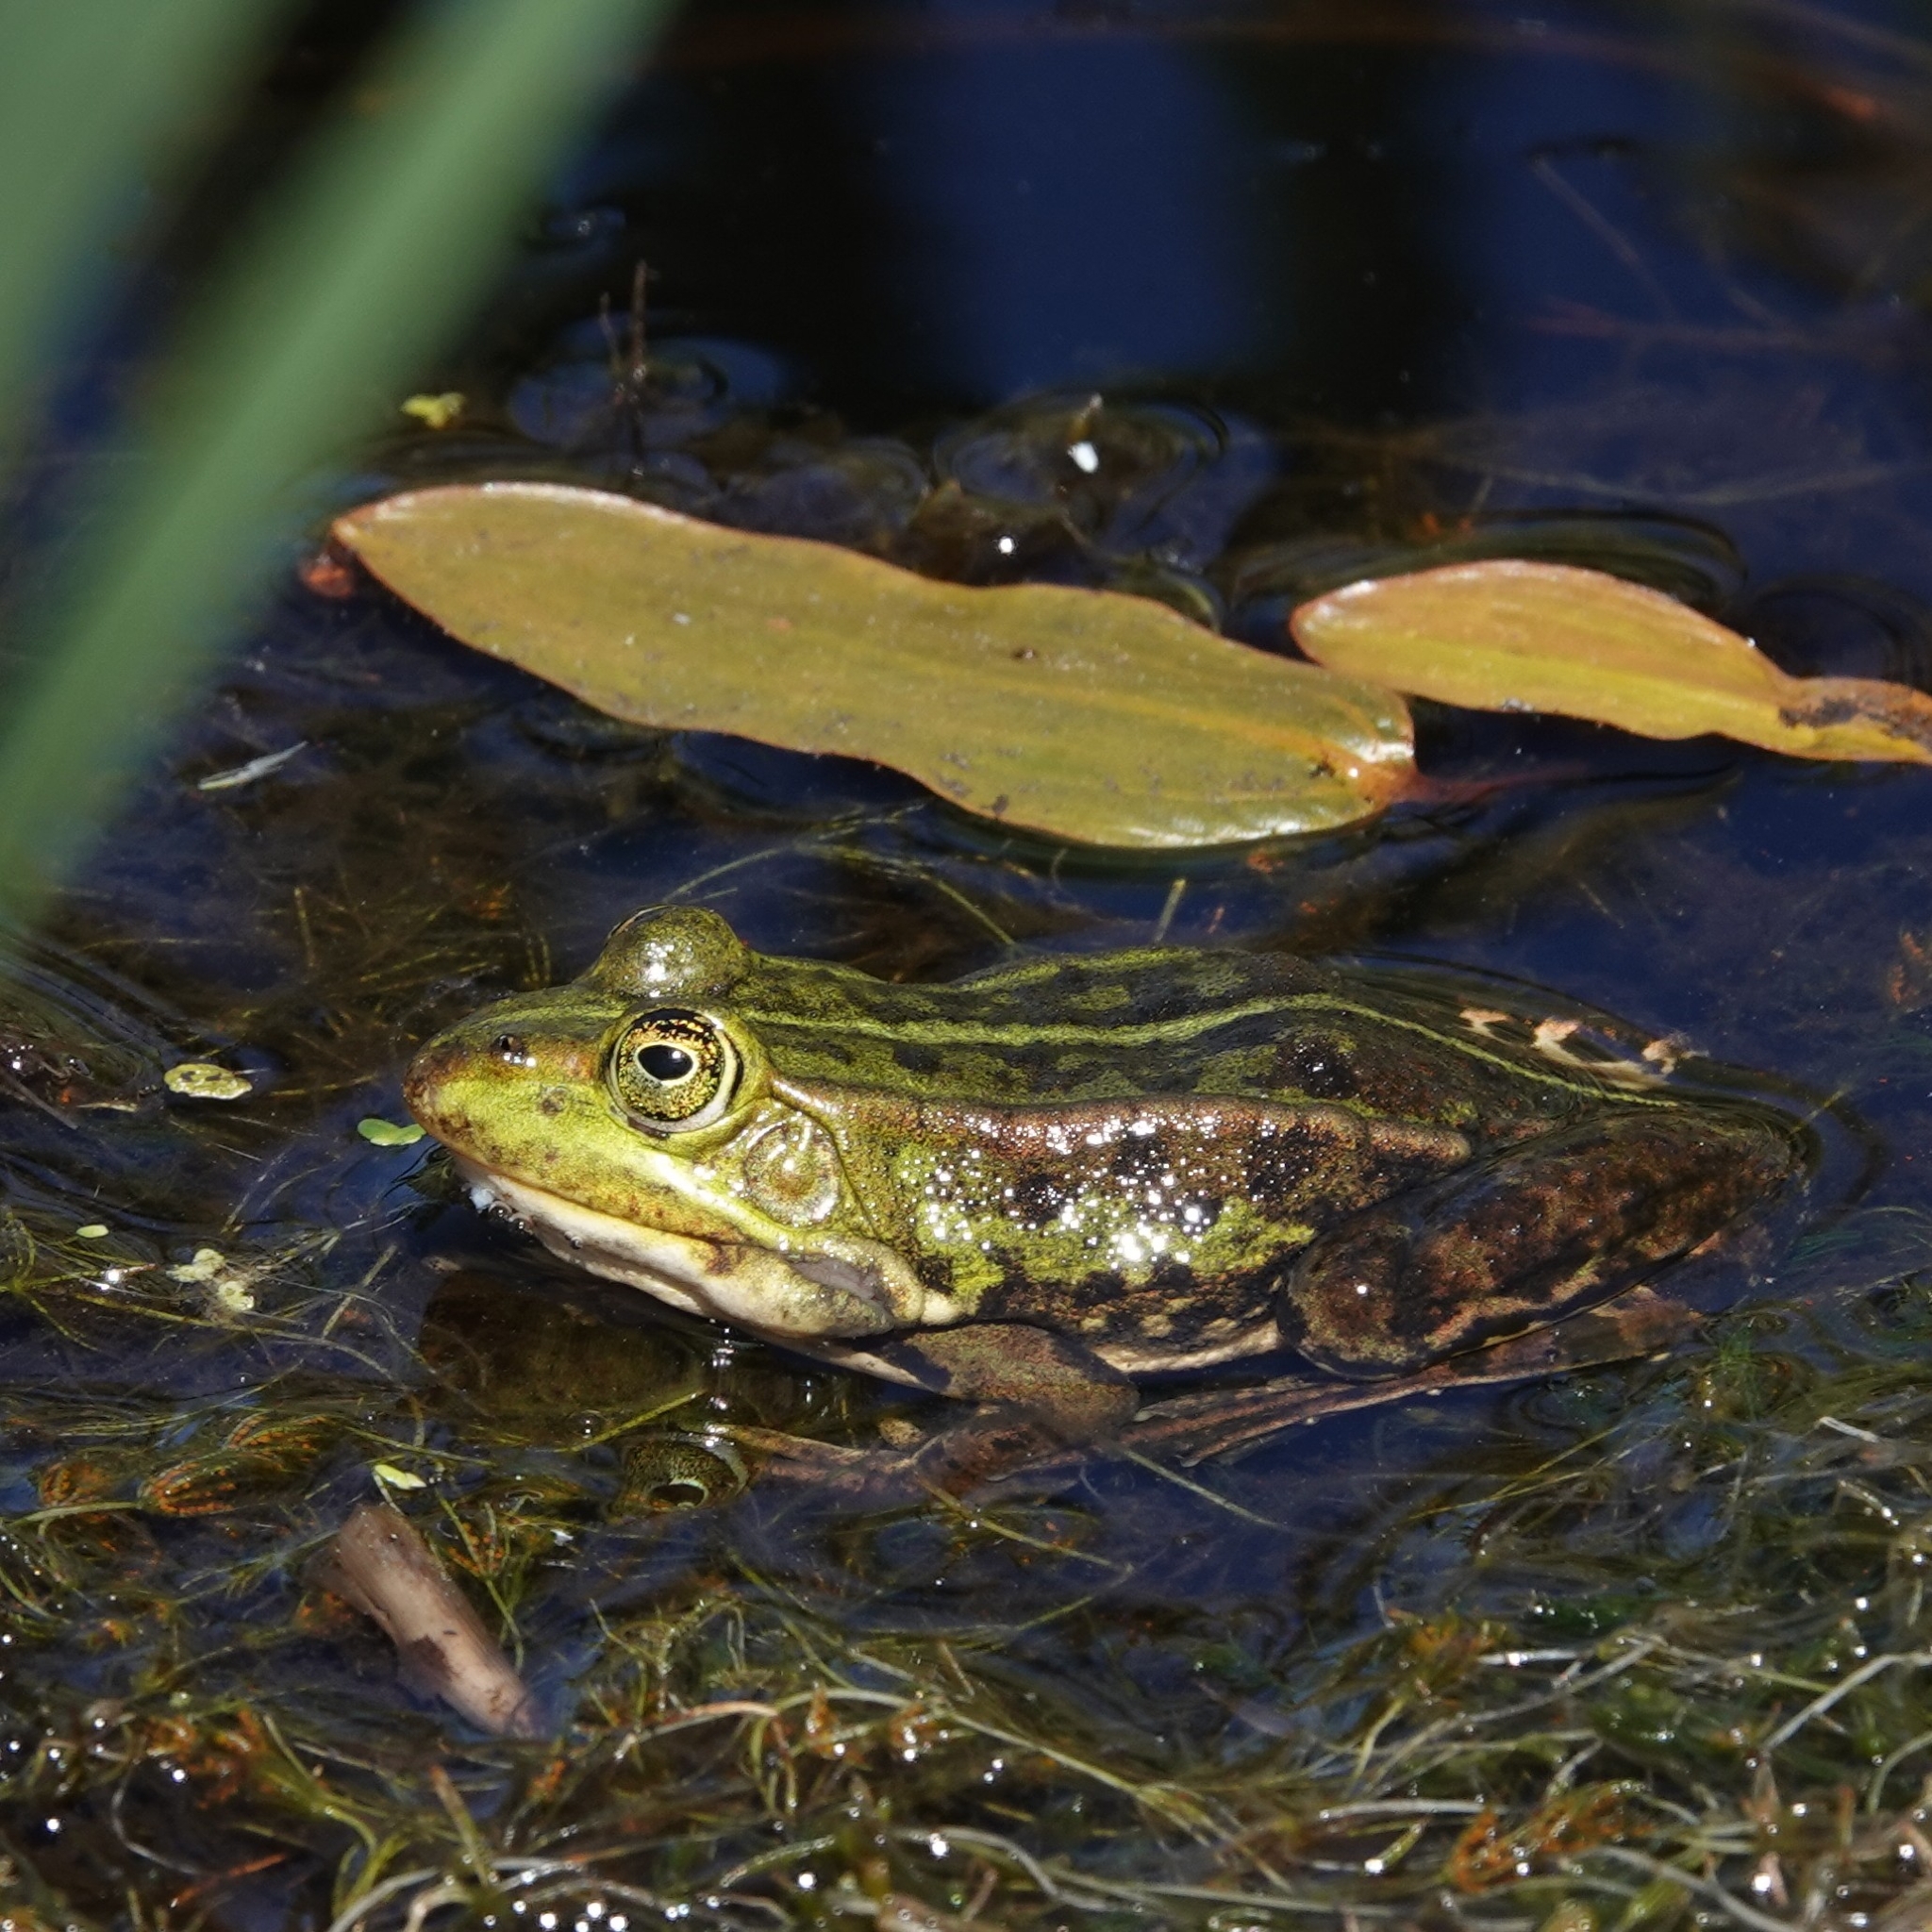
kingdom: Animalia
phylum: Chordata
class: Amphibia
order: Anura
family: Ranidae
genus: Pelophylax
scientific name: Pelophylax lessonae
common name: Pool frog
